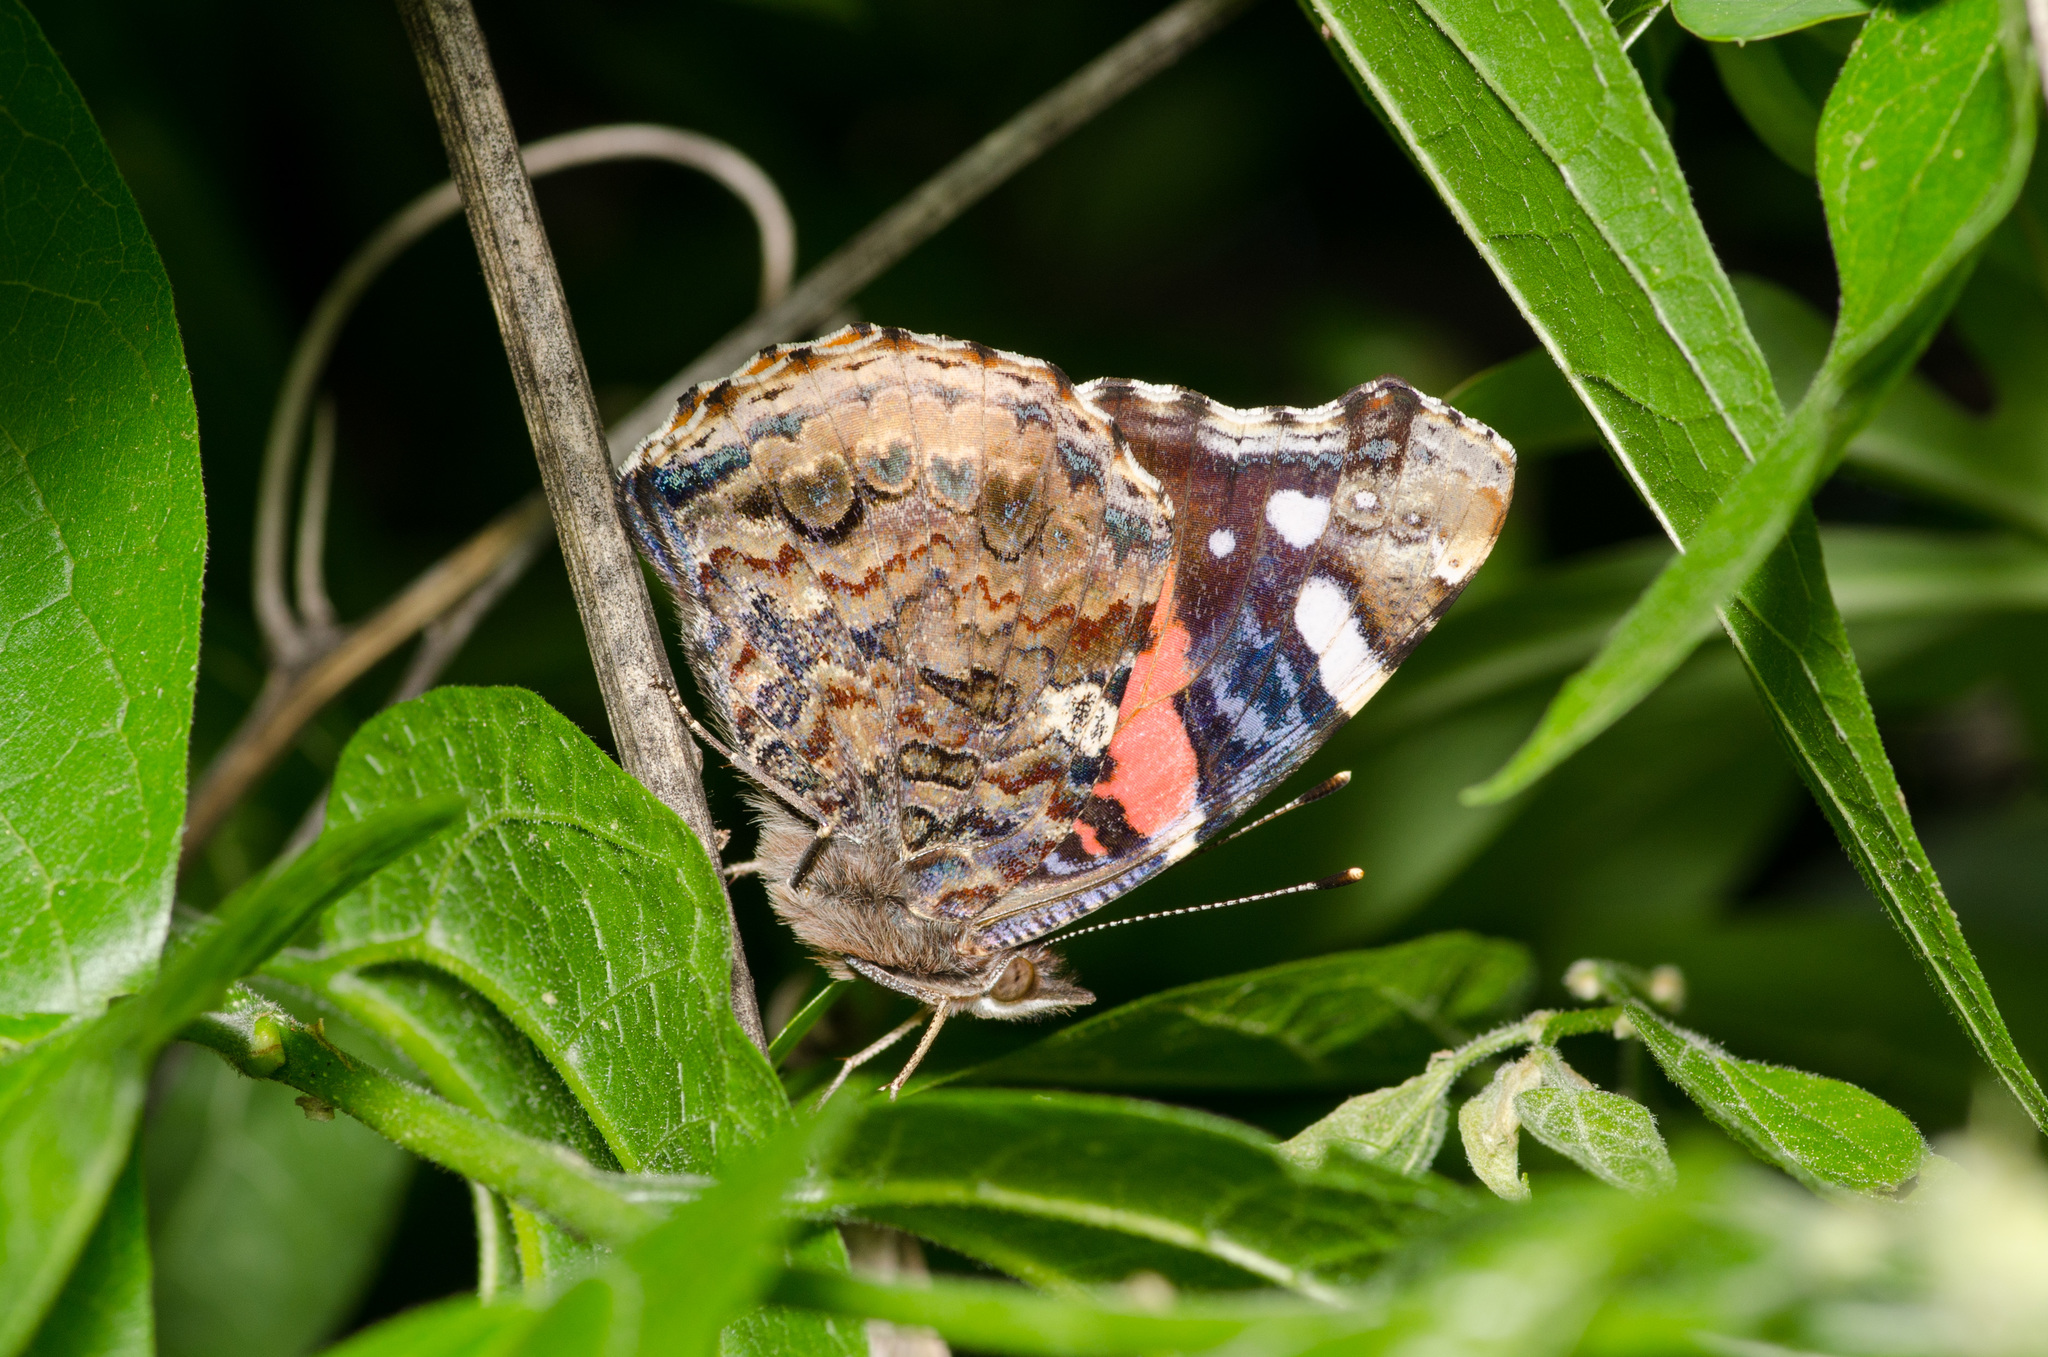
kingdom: Animalia
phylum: Arthropoda
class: Insecta
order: Lepidoptera
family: Nymphalidae
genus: Vanessa
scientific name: Vanessa atalanta
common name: Red admiral
